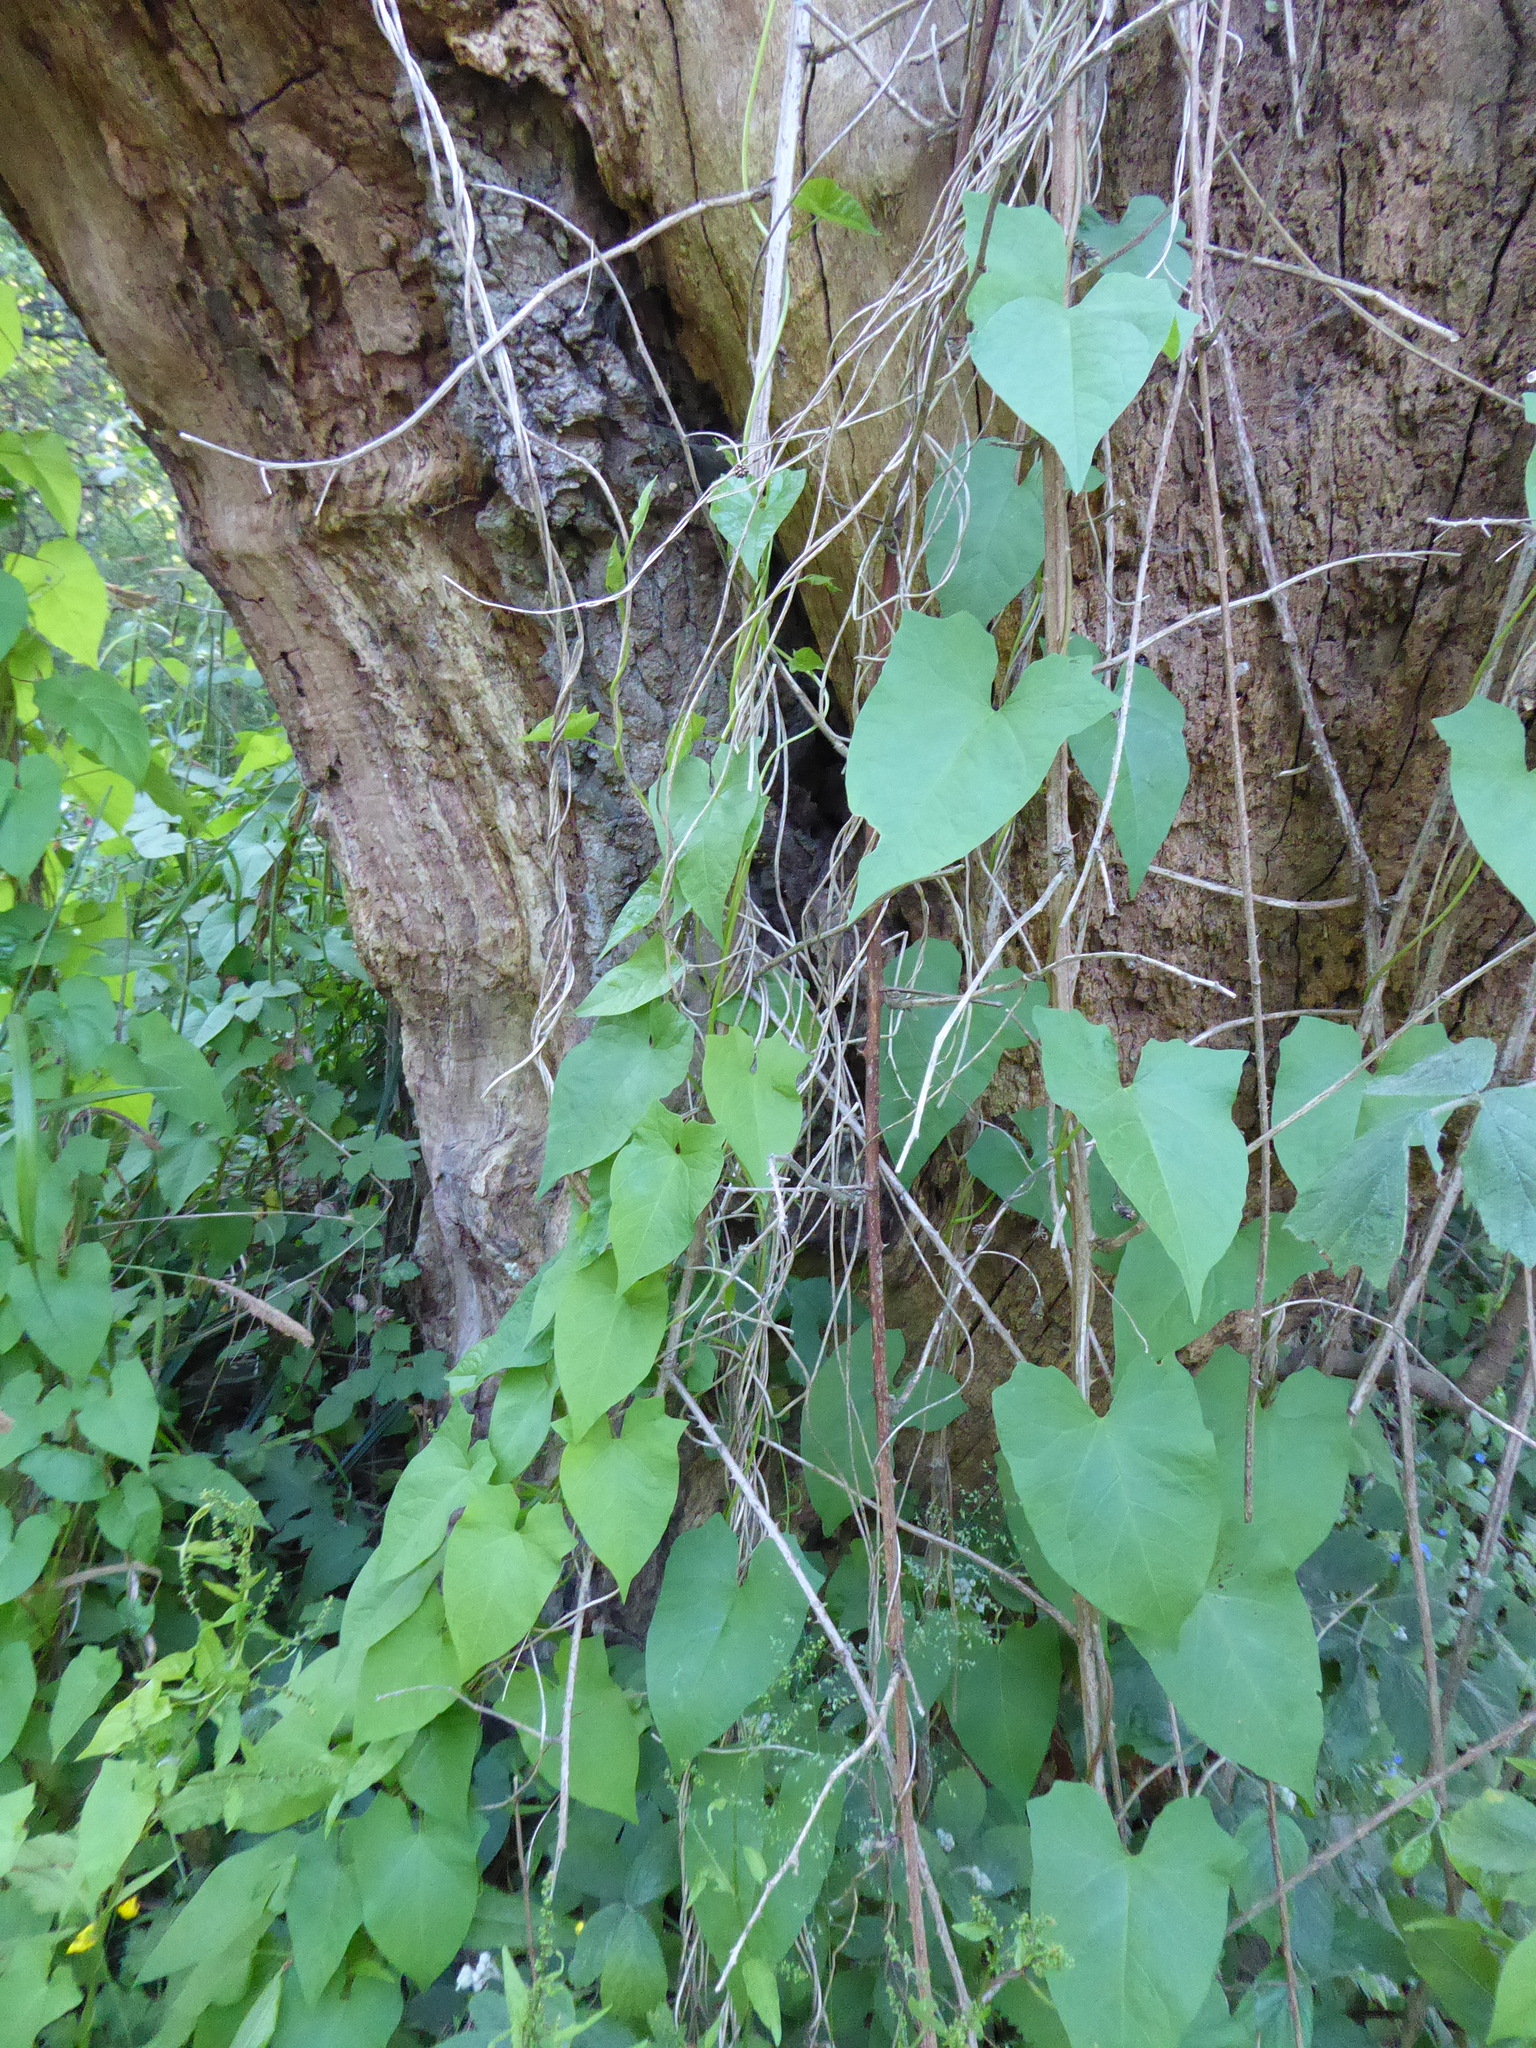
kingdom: Plantae
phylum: Tracheophyta
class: Magnoliopsida
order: Solanales
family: Convolvulaceae
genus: Calystegia
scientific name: Calystegia
